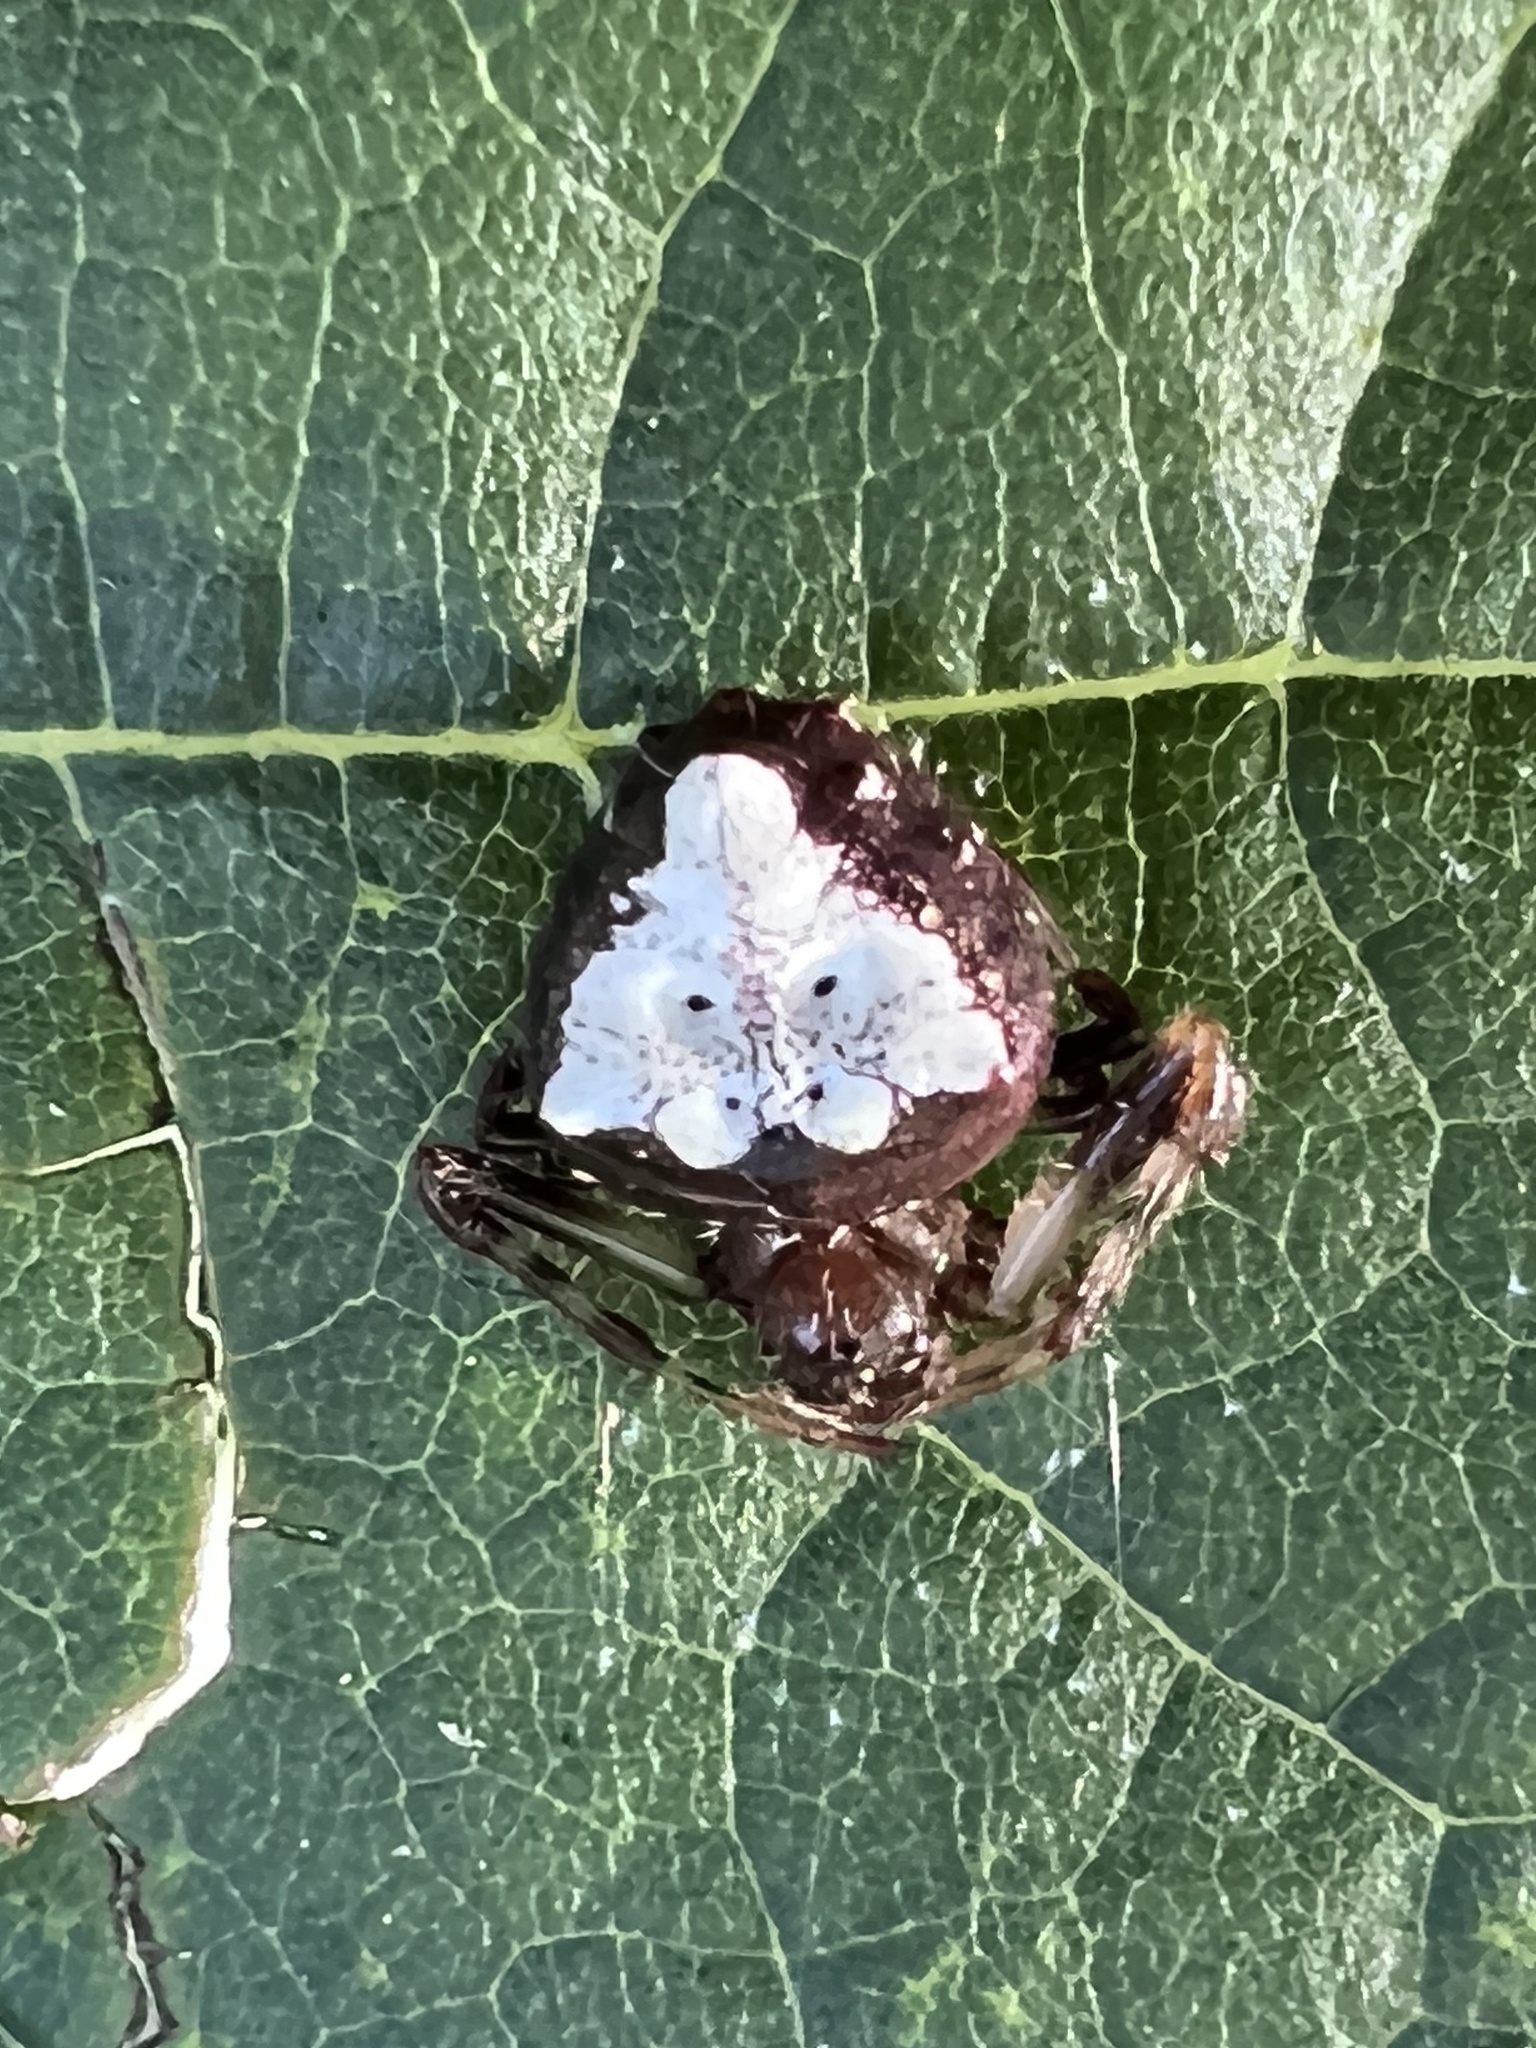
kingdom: Animalia
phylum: Arthropoda
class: Arachnida
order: Araneae
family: Araneidae
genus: Verrucosa
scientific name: Verrucosa arenata
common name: Orb weavers
